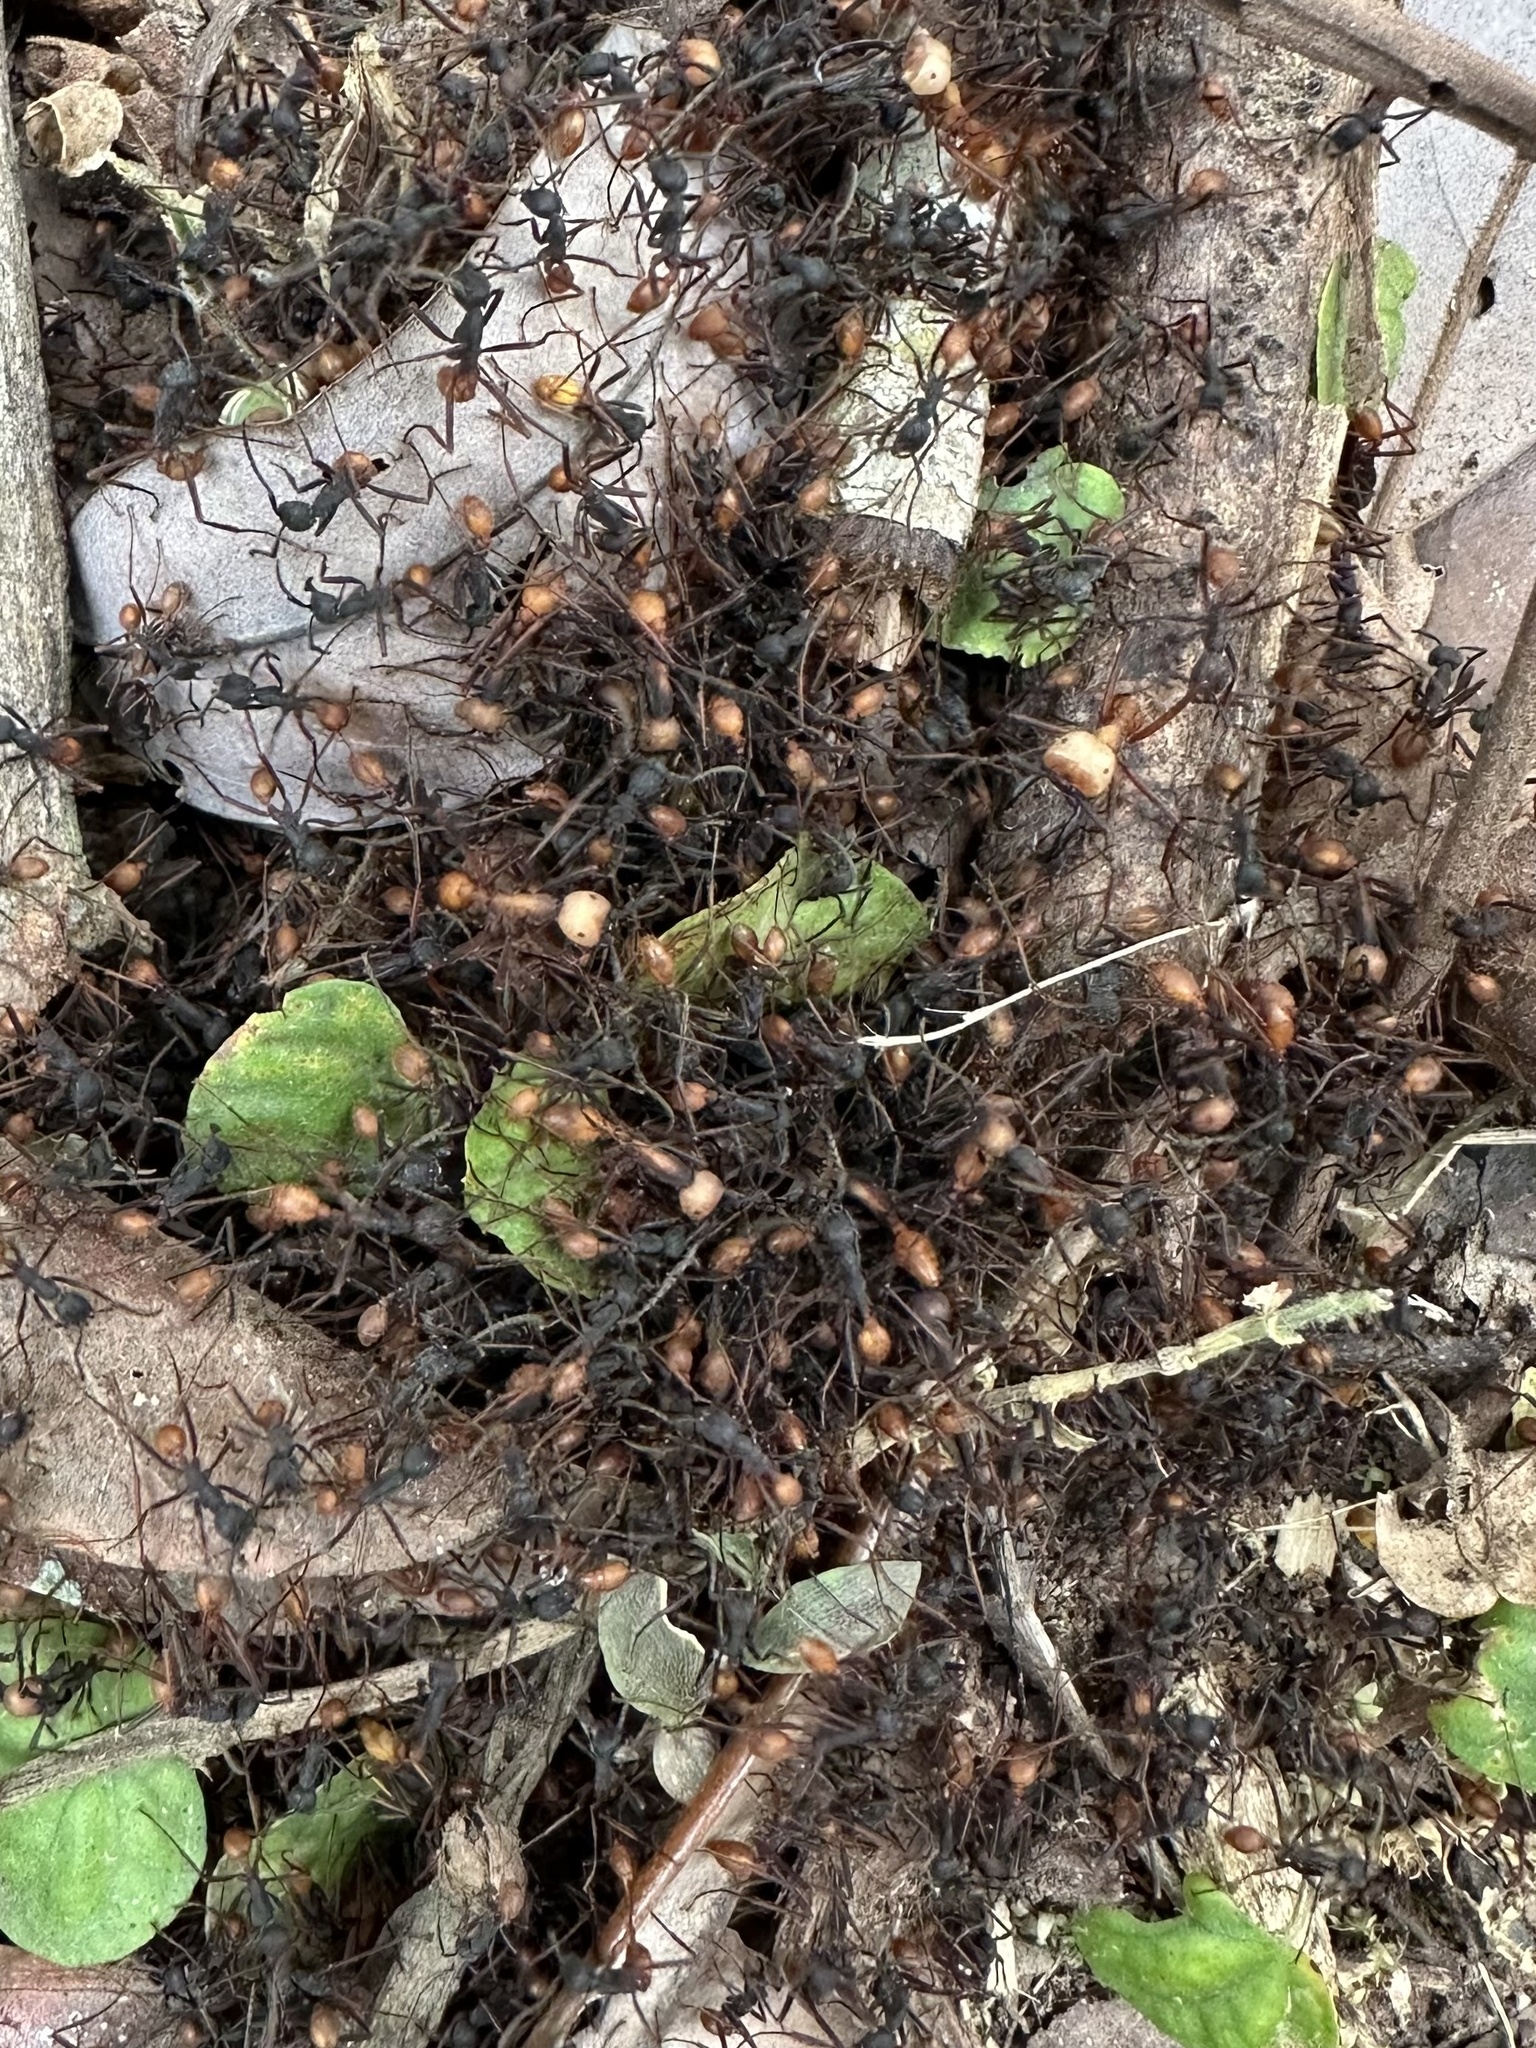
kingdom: Animalia
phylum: Arthropoda
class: Insecta
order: Hymenoptera
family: Formicidae
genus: Eciton
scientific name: Eciton burchellii
